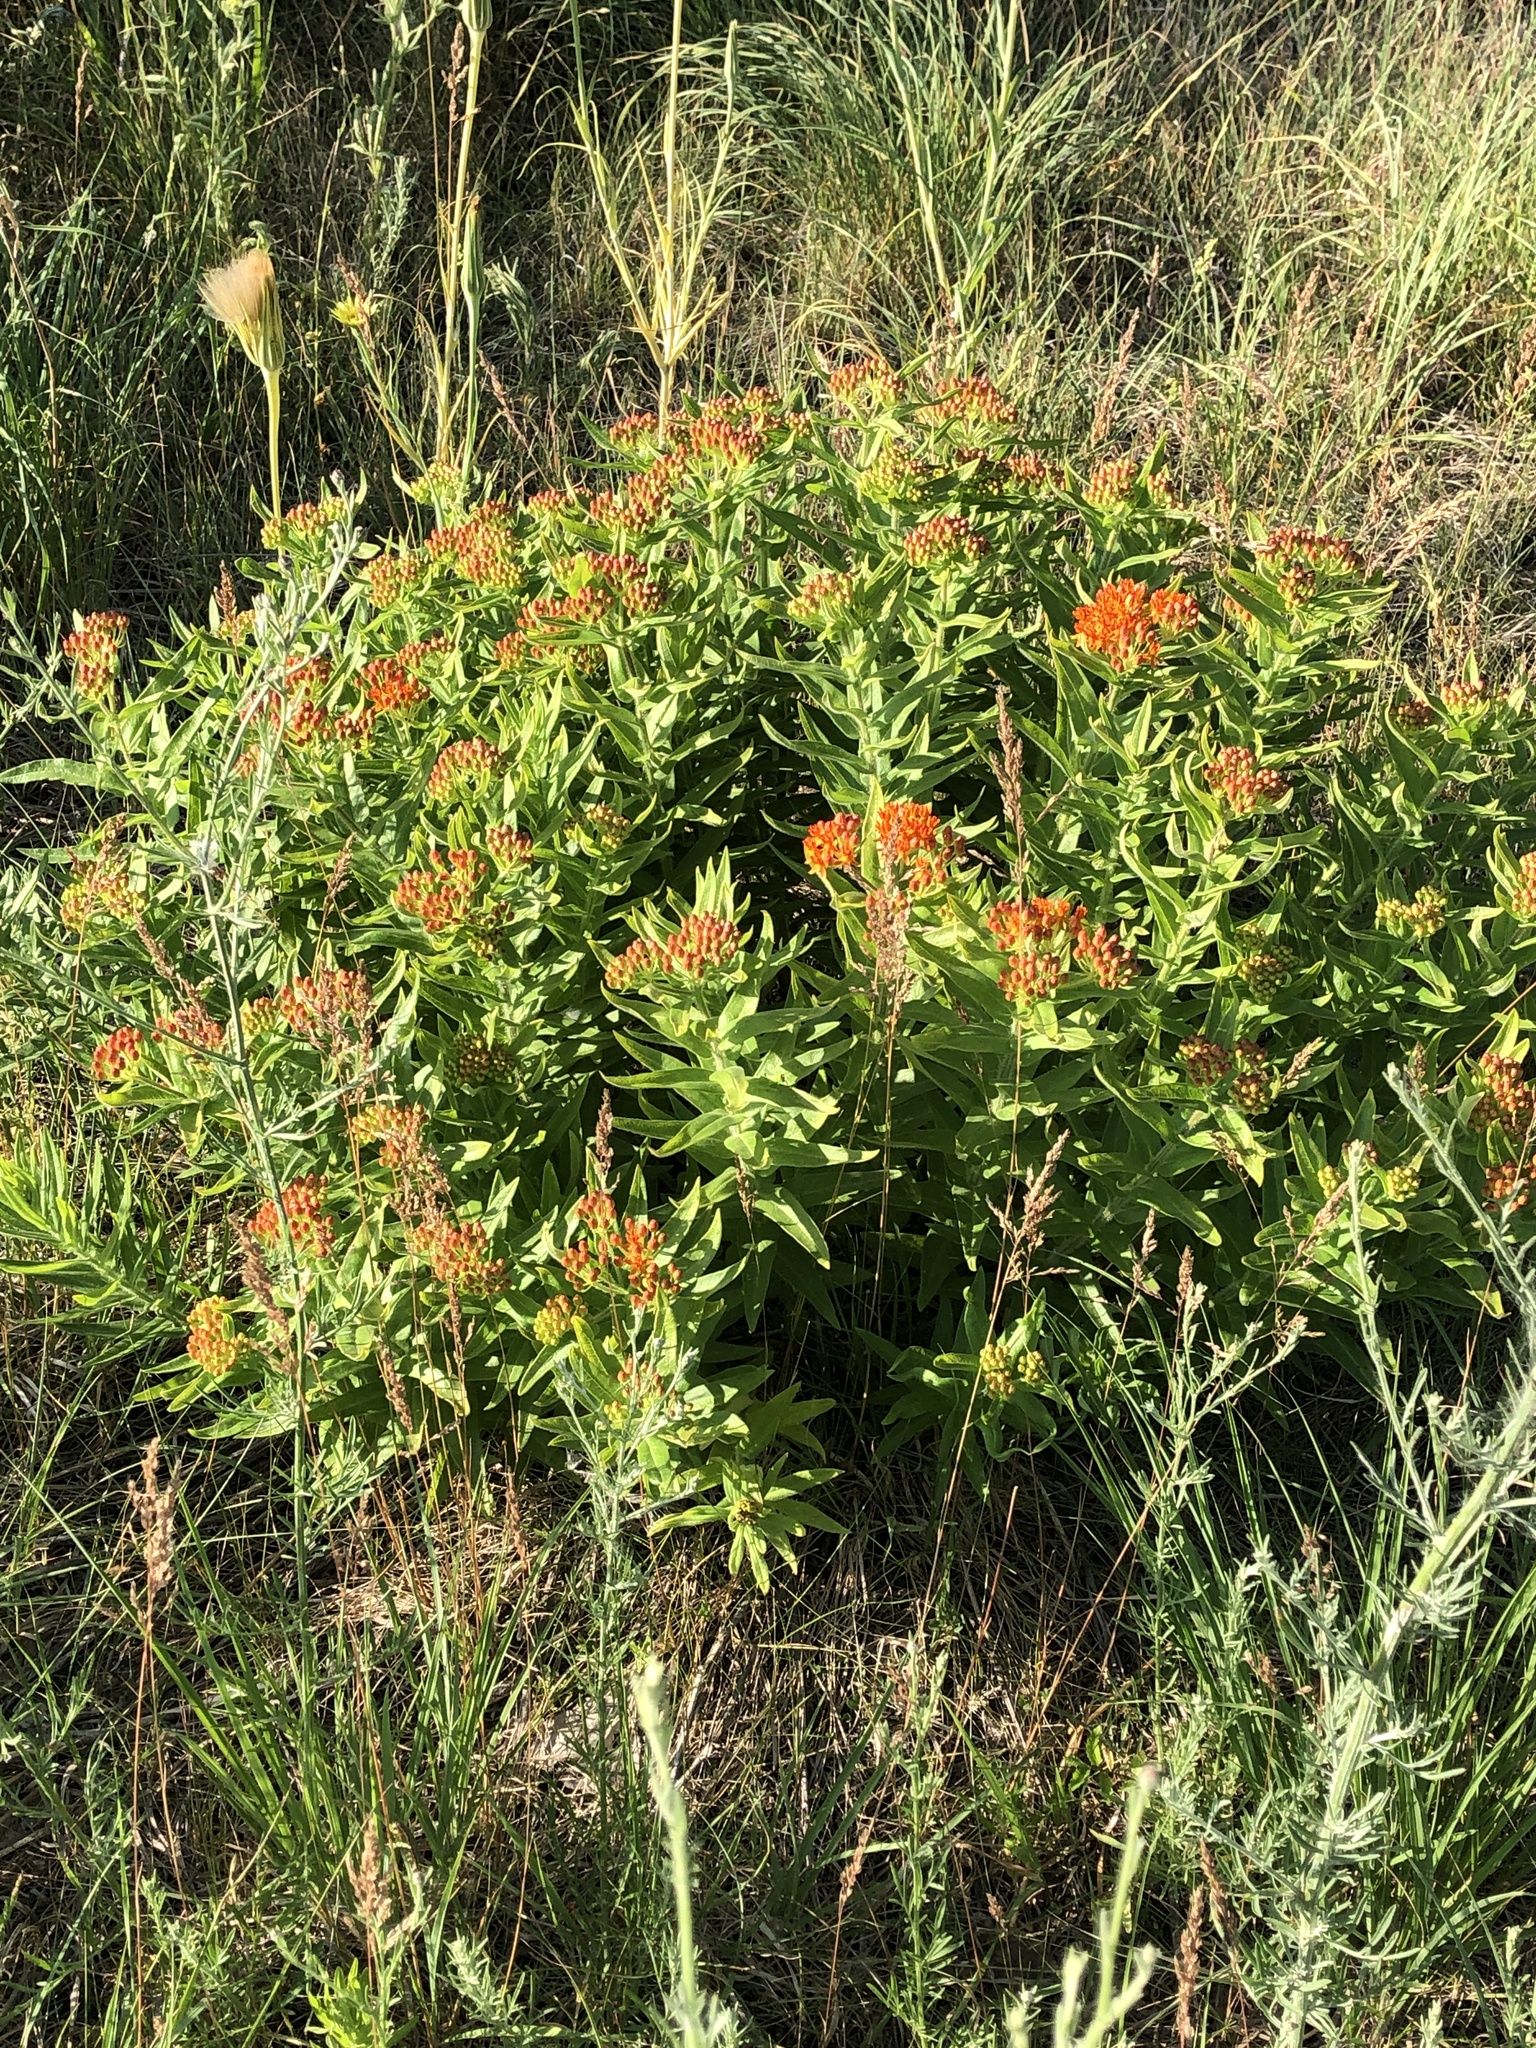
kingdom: Plantae
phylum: Tracheophyta
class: Magnoliopsida
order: Gentianales
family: Apocynaceae
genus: Asclepias
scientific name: Asclepias tuberosa
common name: Butterfly milkweed
